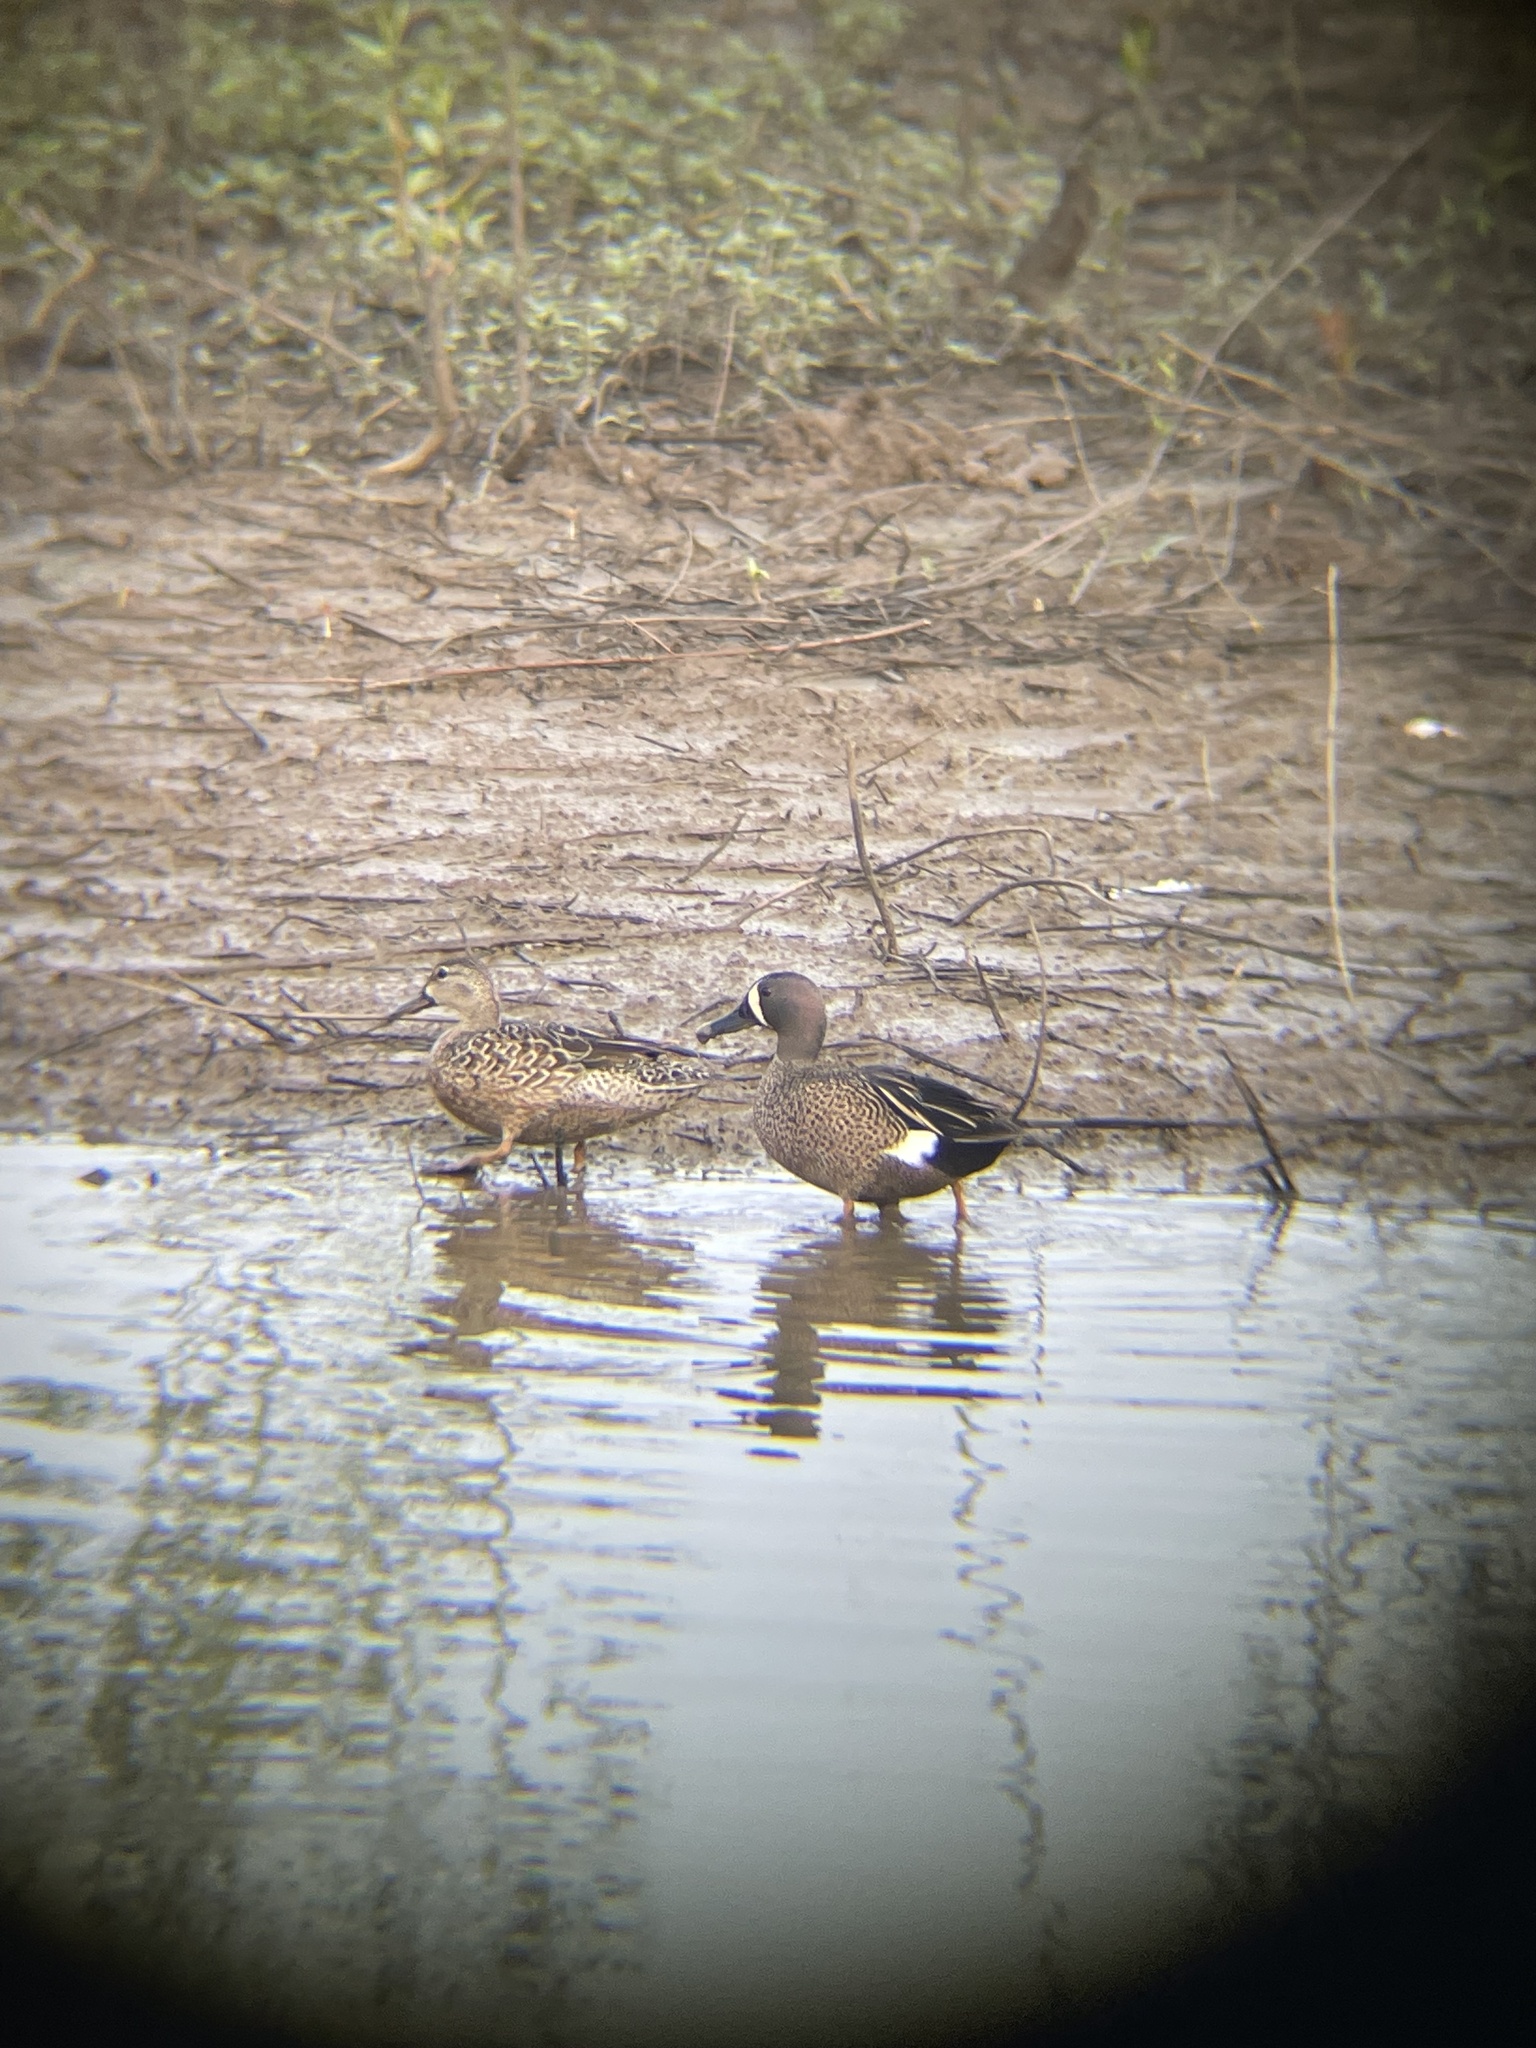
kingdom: Animalia
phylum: Chordata
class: Aves
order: Anseriformes
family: Anatidae
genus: Spatula
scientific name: Spatula discors
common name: Blue-winged teal
